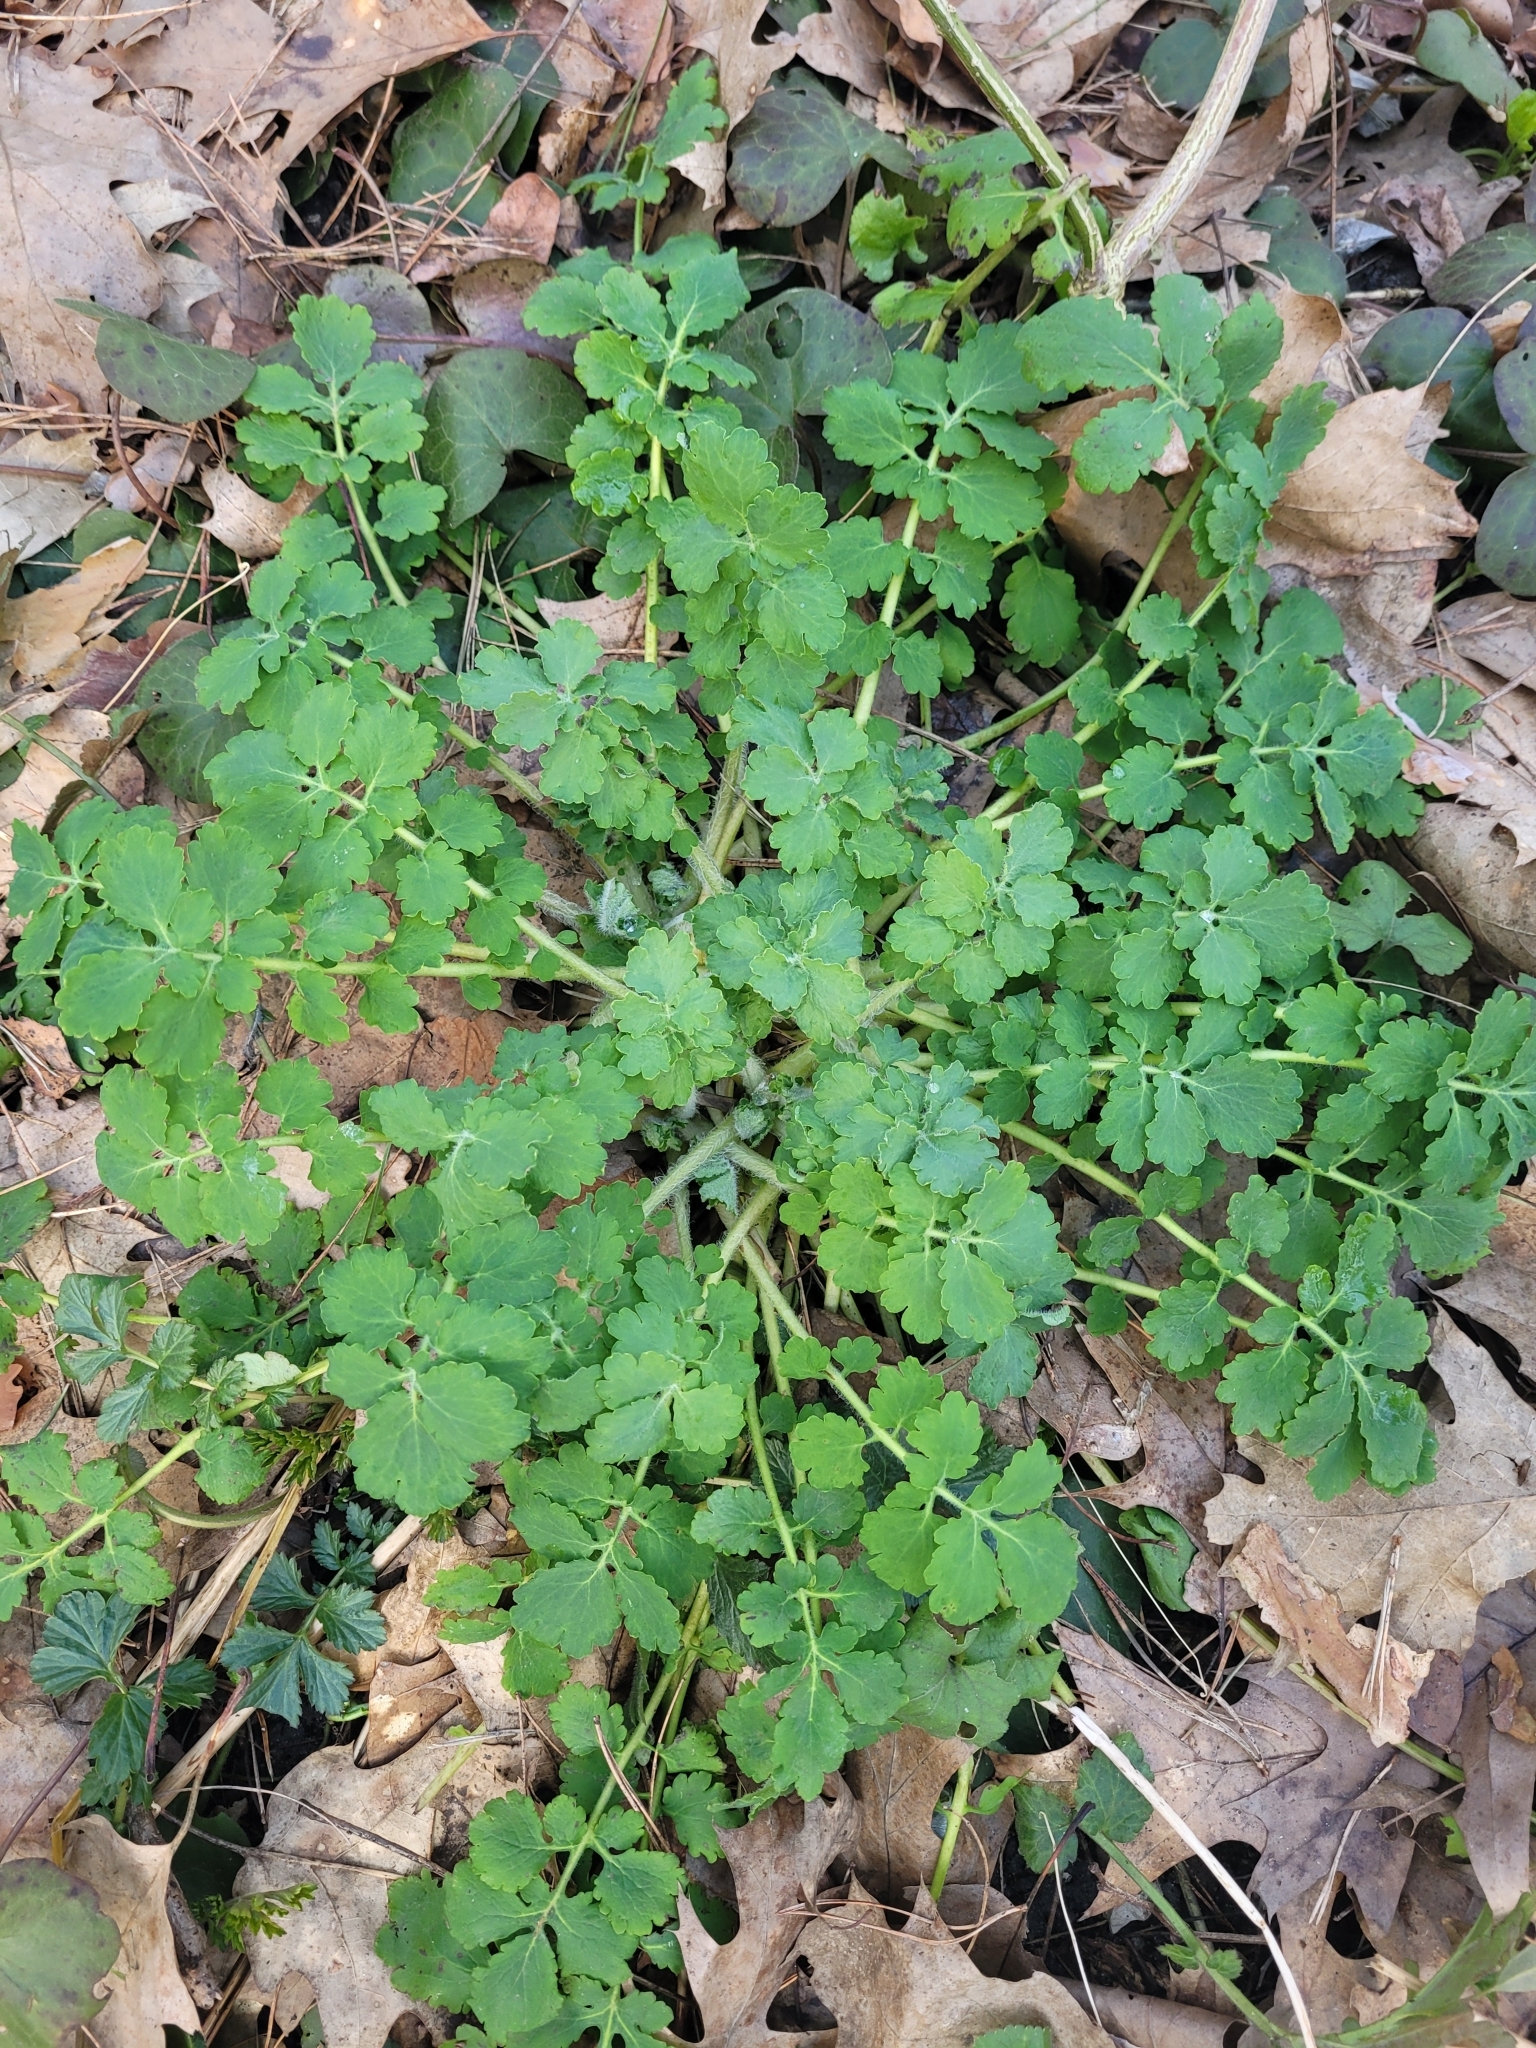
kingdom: Plantae
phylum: Tracheophyta
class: Magnoliopsida
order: Ranunculales
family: Papaveraceae
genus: Chelidonium
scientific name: Chelidonium majus
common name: Greater celandine
